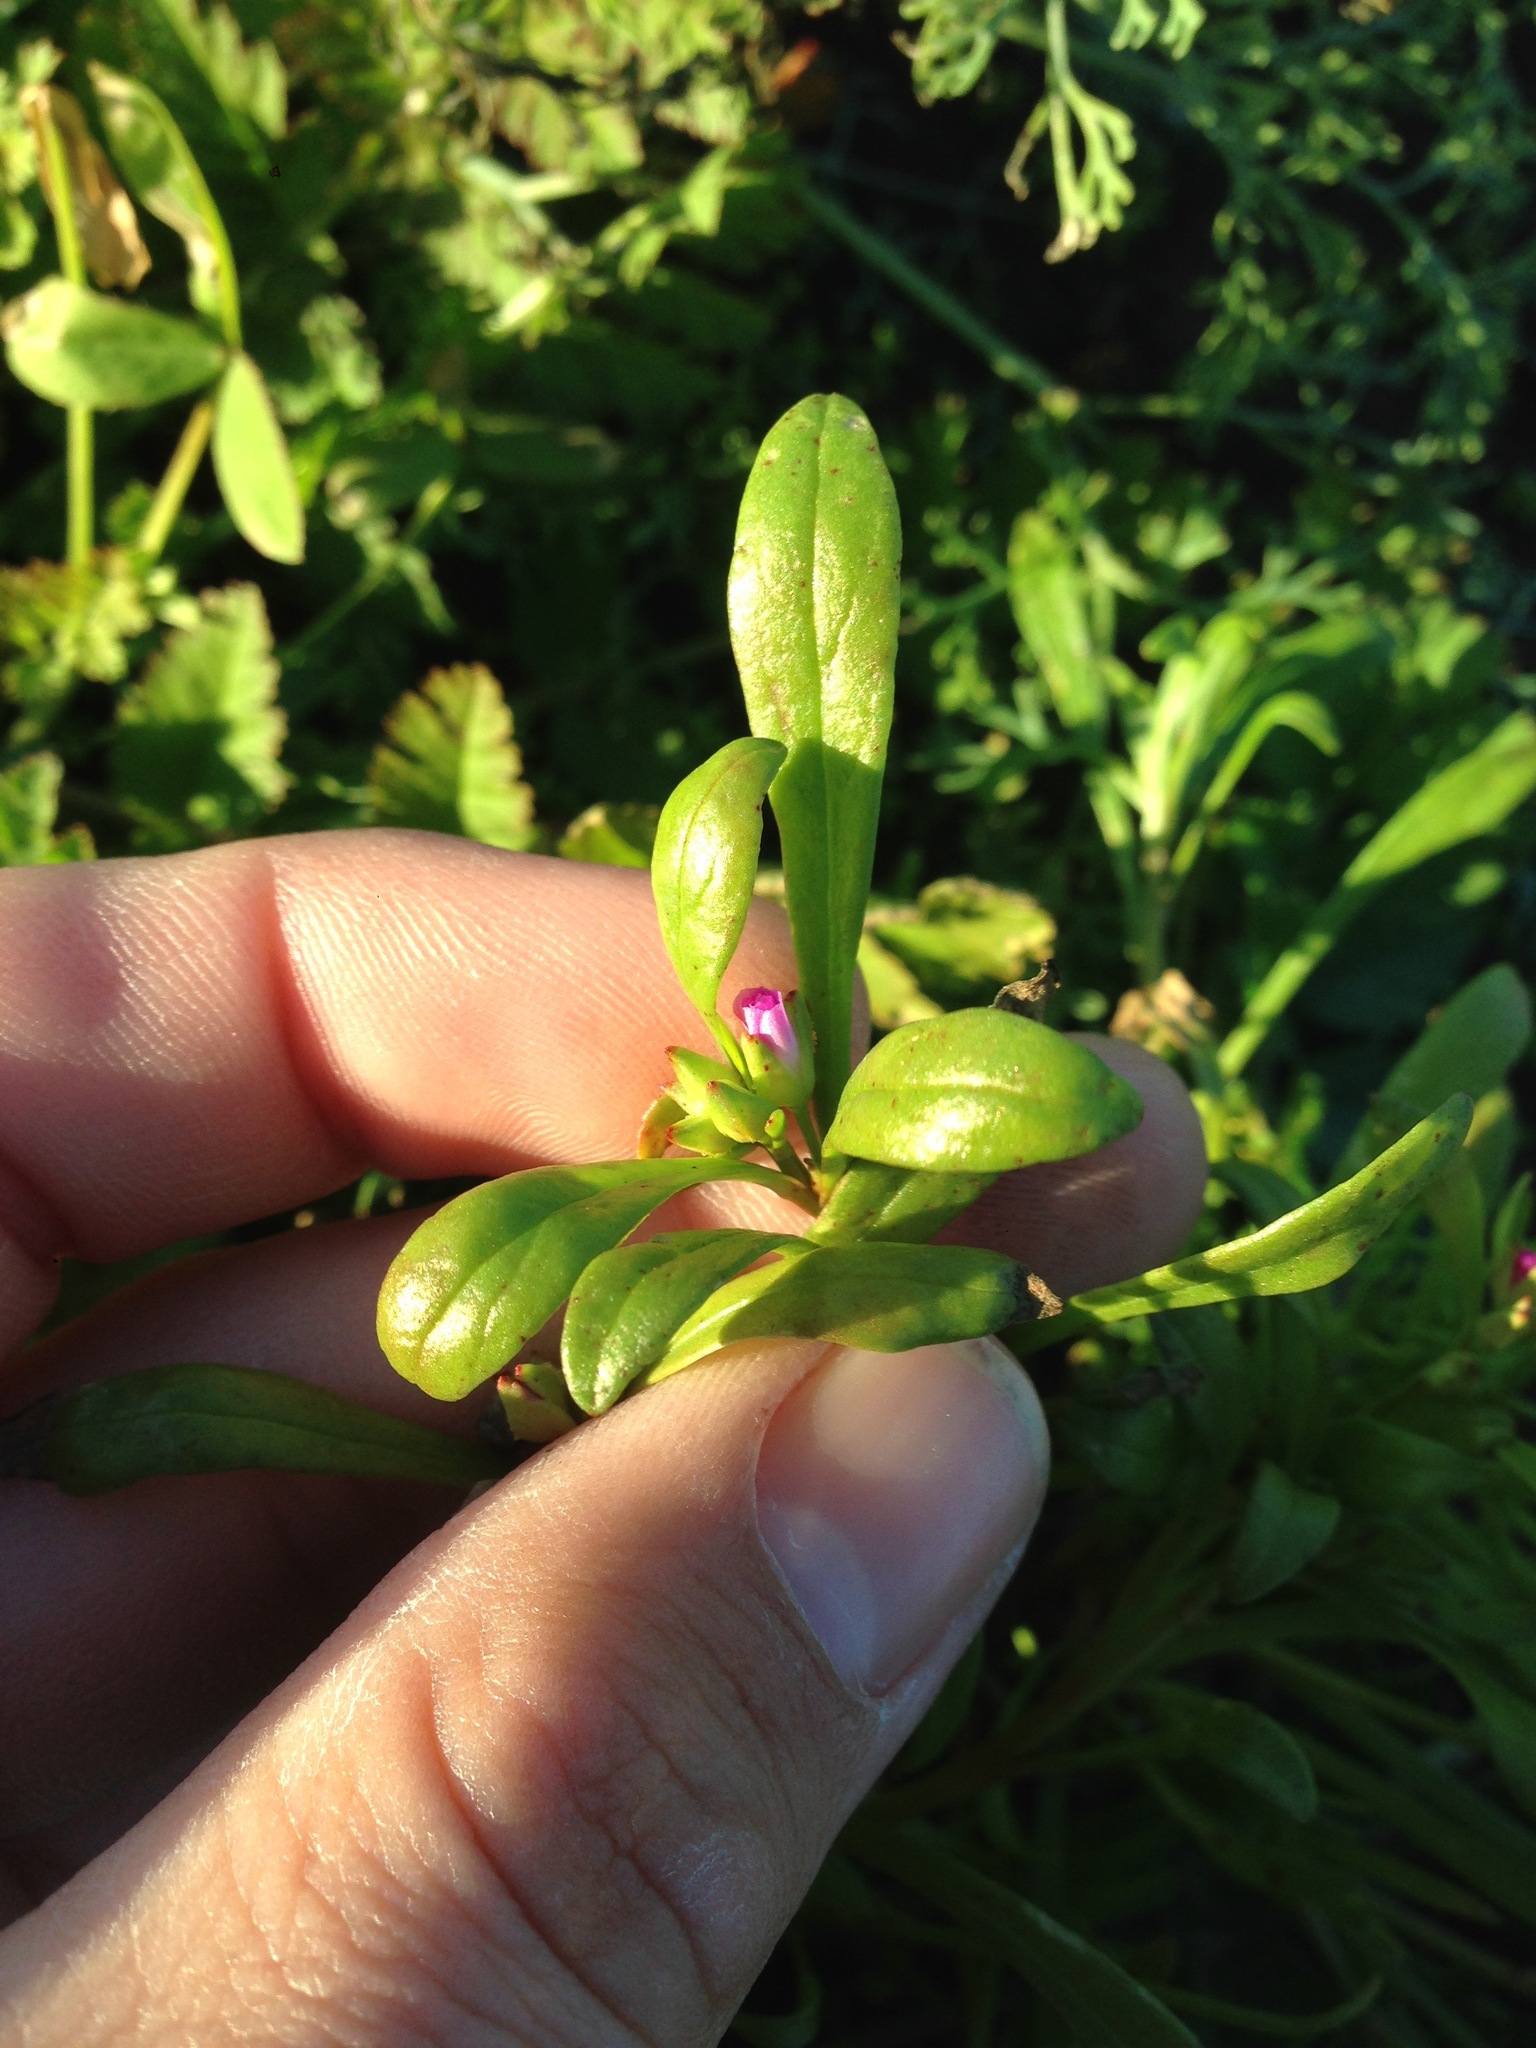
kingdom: Plantae
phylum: Tracheophyta
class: Magnoliopsida
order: Caryophyllales
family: Montiaceae
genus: Calandrinia
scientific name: Calandrinia menziesii
